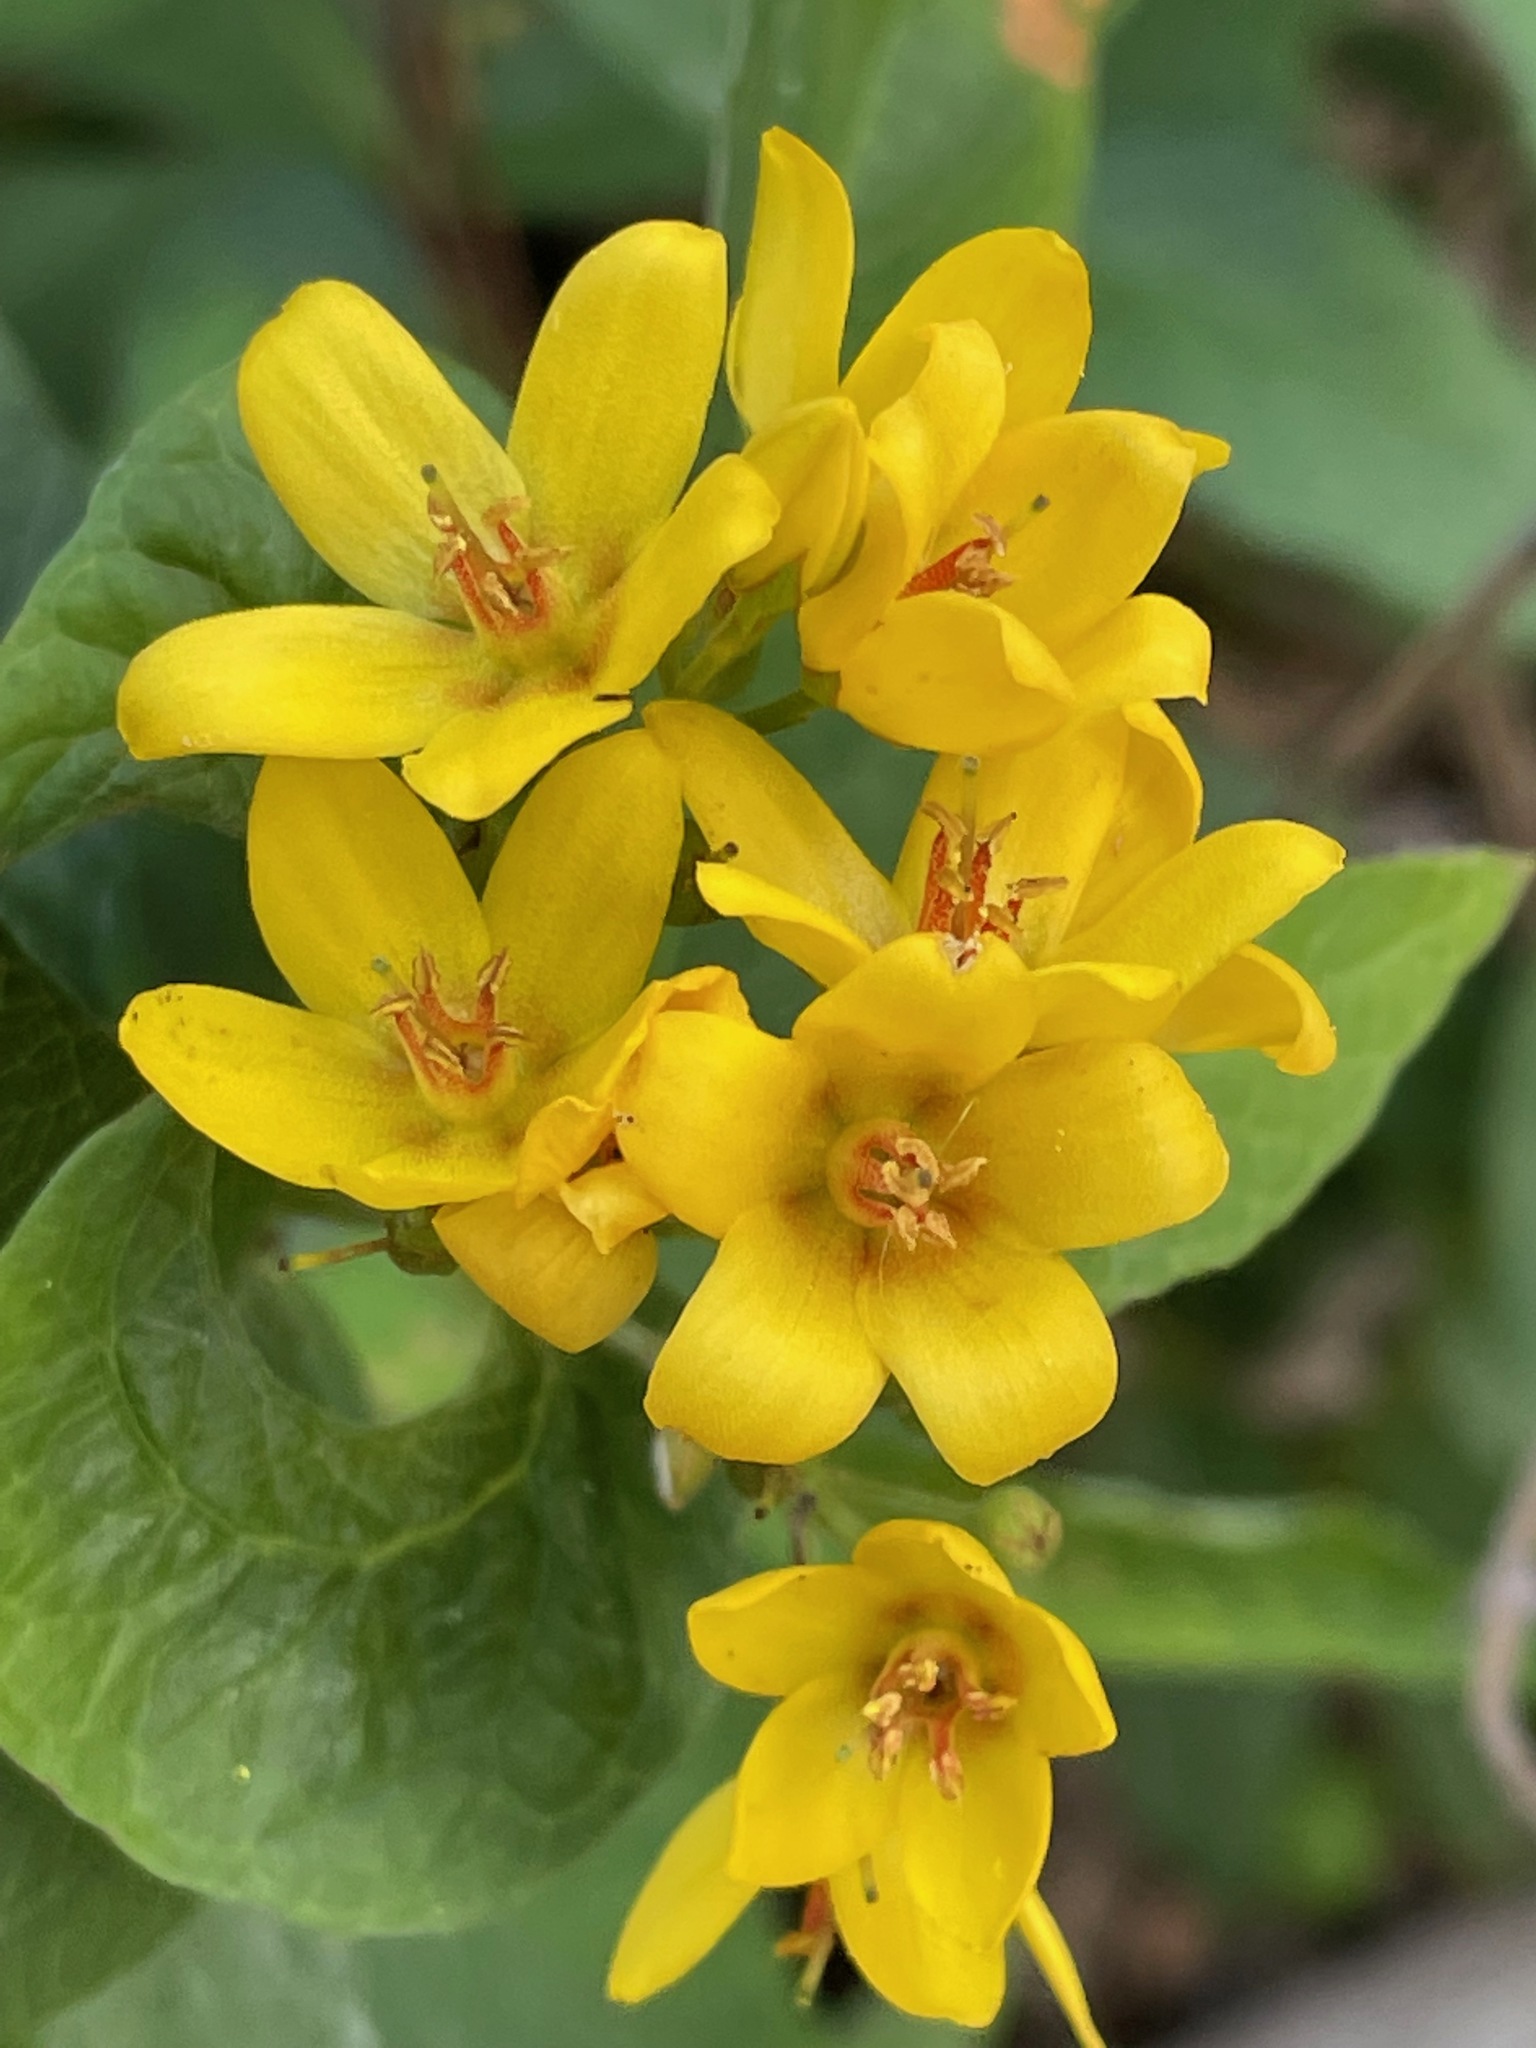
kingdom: Plantae
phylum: Tracheophyta
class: Magnoliopsida
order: Ericales
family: Primulaceae
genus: Lysimachia
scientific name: Lysimachia vulgaris
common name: Yellow loosestrife
